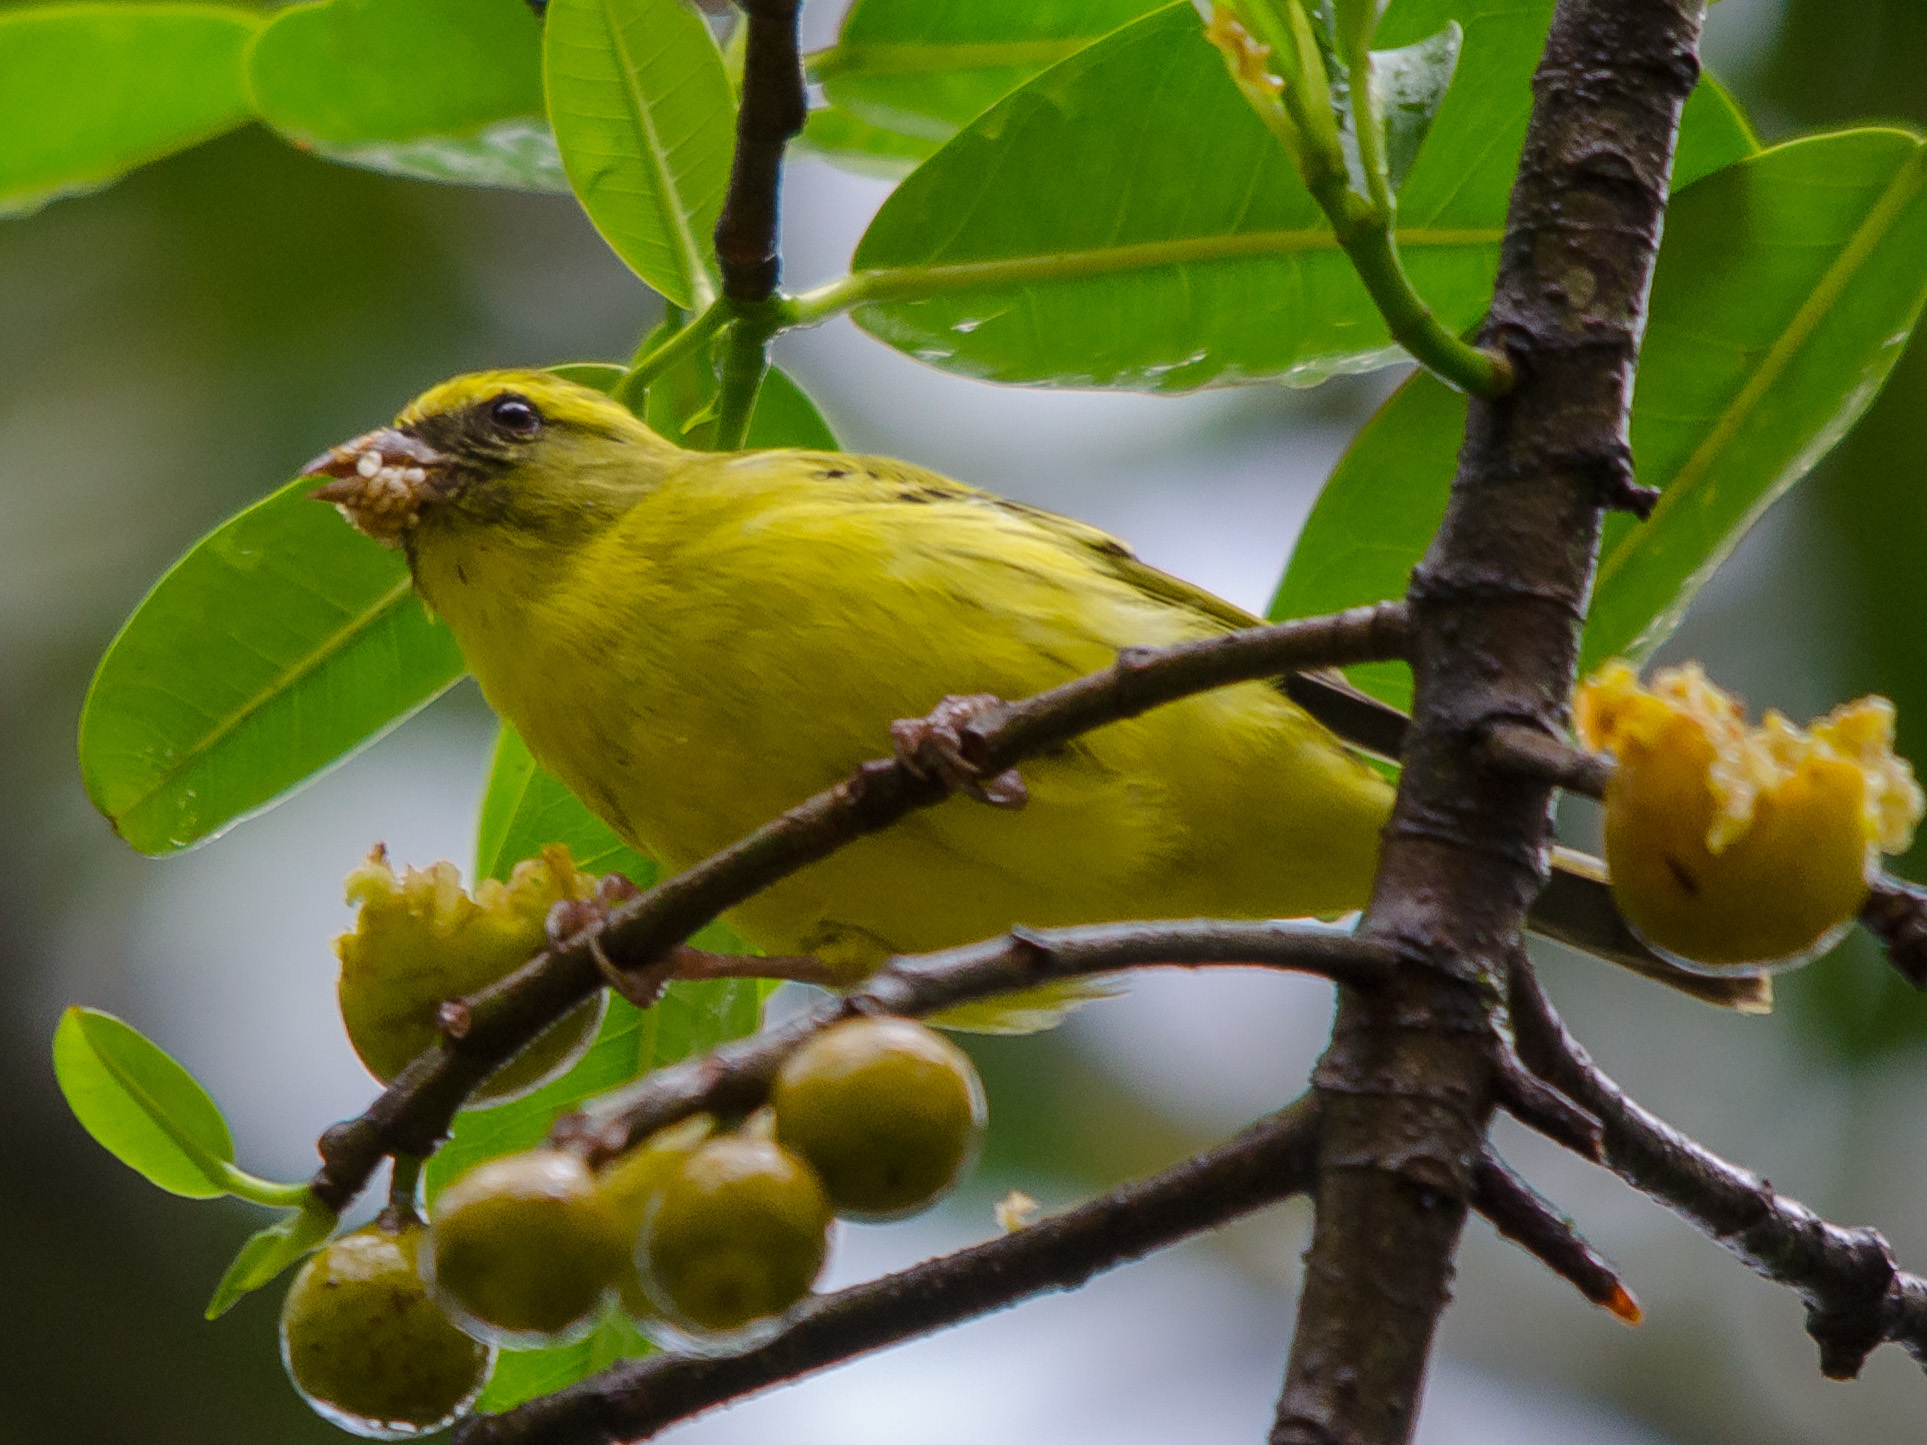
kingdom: Animalia
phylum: Chordata
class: Aves
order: Passeriformes
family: Fringillidae
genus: Crithagra
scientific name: Crithagra frontalis
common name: Western citril
